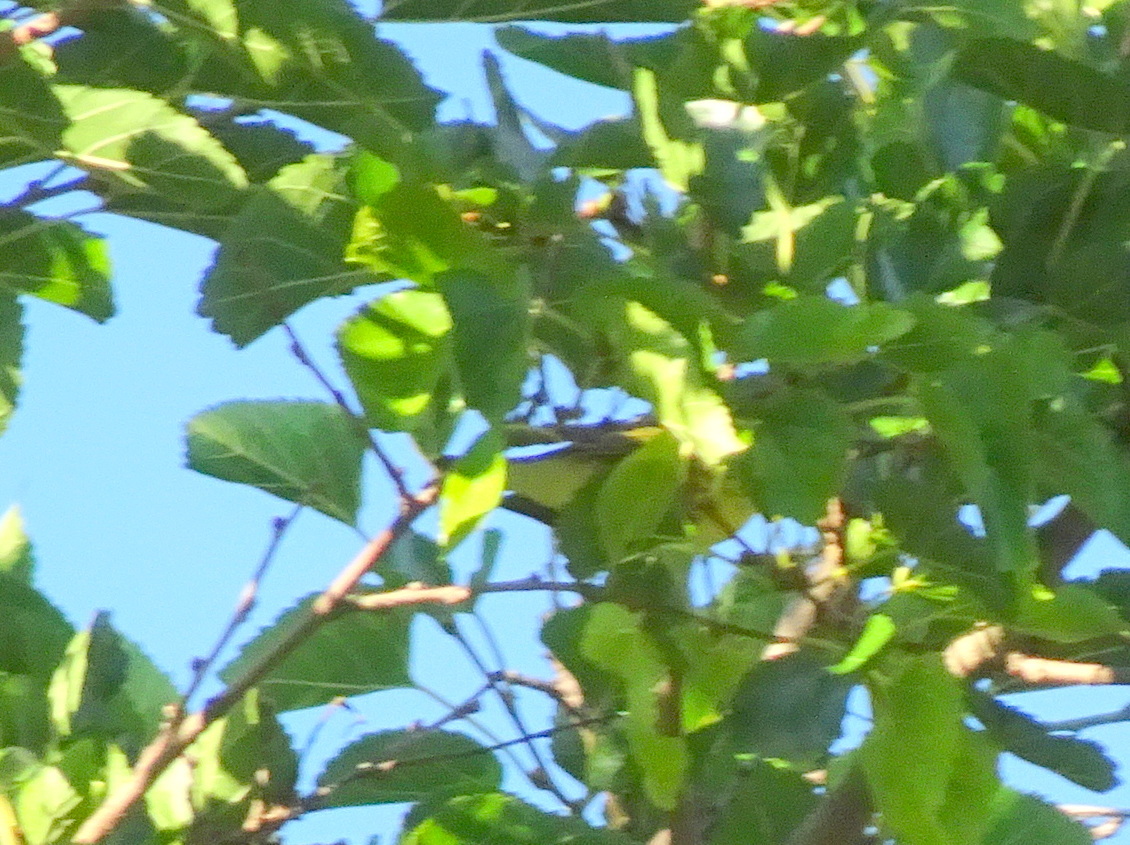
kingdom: Animalia
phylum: Chordata
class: Aves
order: Passeriformes
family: Parulidae
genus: Setophaga
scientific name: Setophaga tigrina
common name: Cape may warbler
